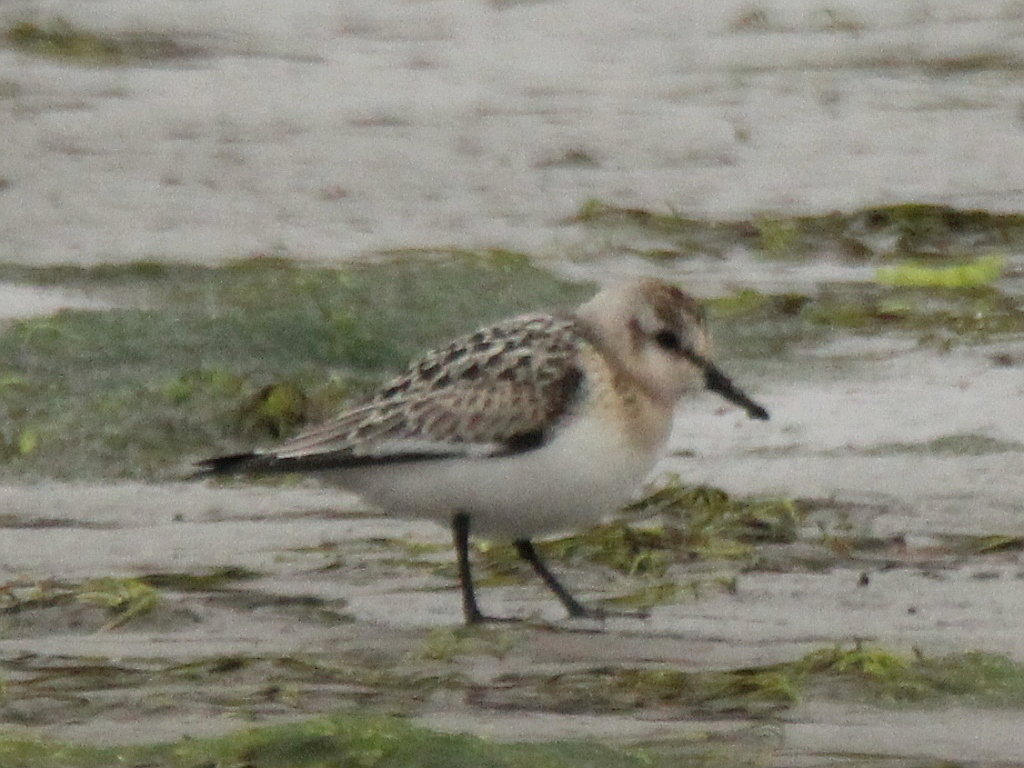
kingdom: Animalia
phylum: Chordata
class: Aves
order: Charadriiformes
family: Scolopacidae
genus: Calidris
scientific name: Calidris alba
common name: Sanderling
